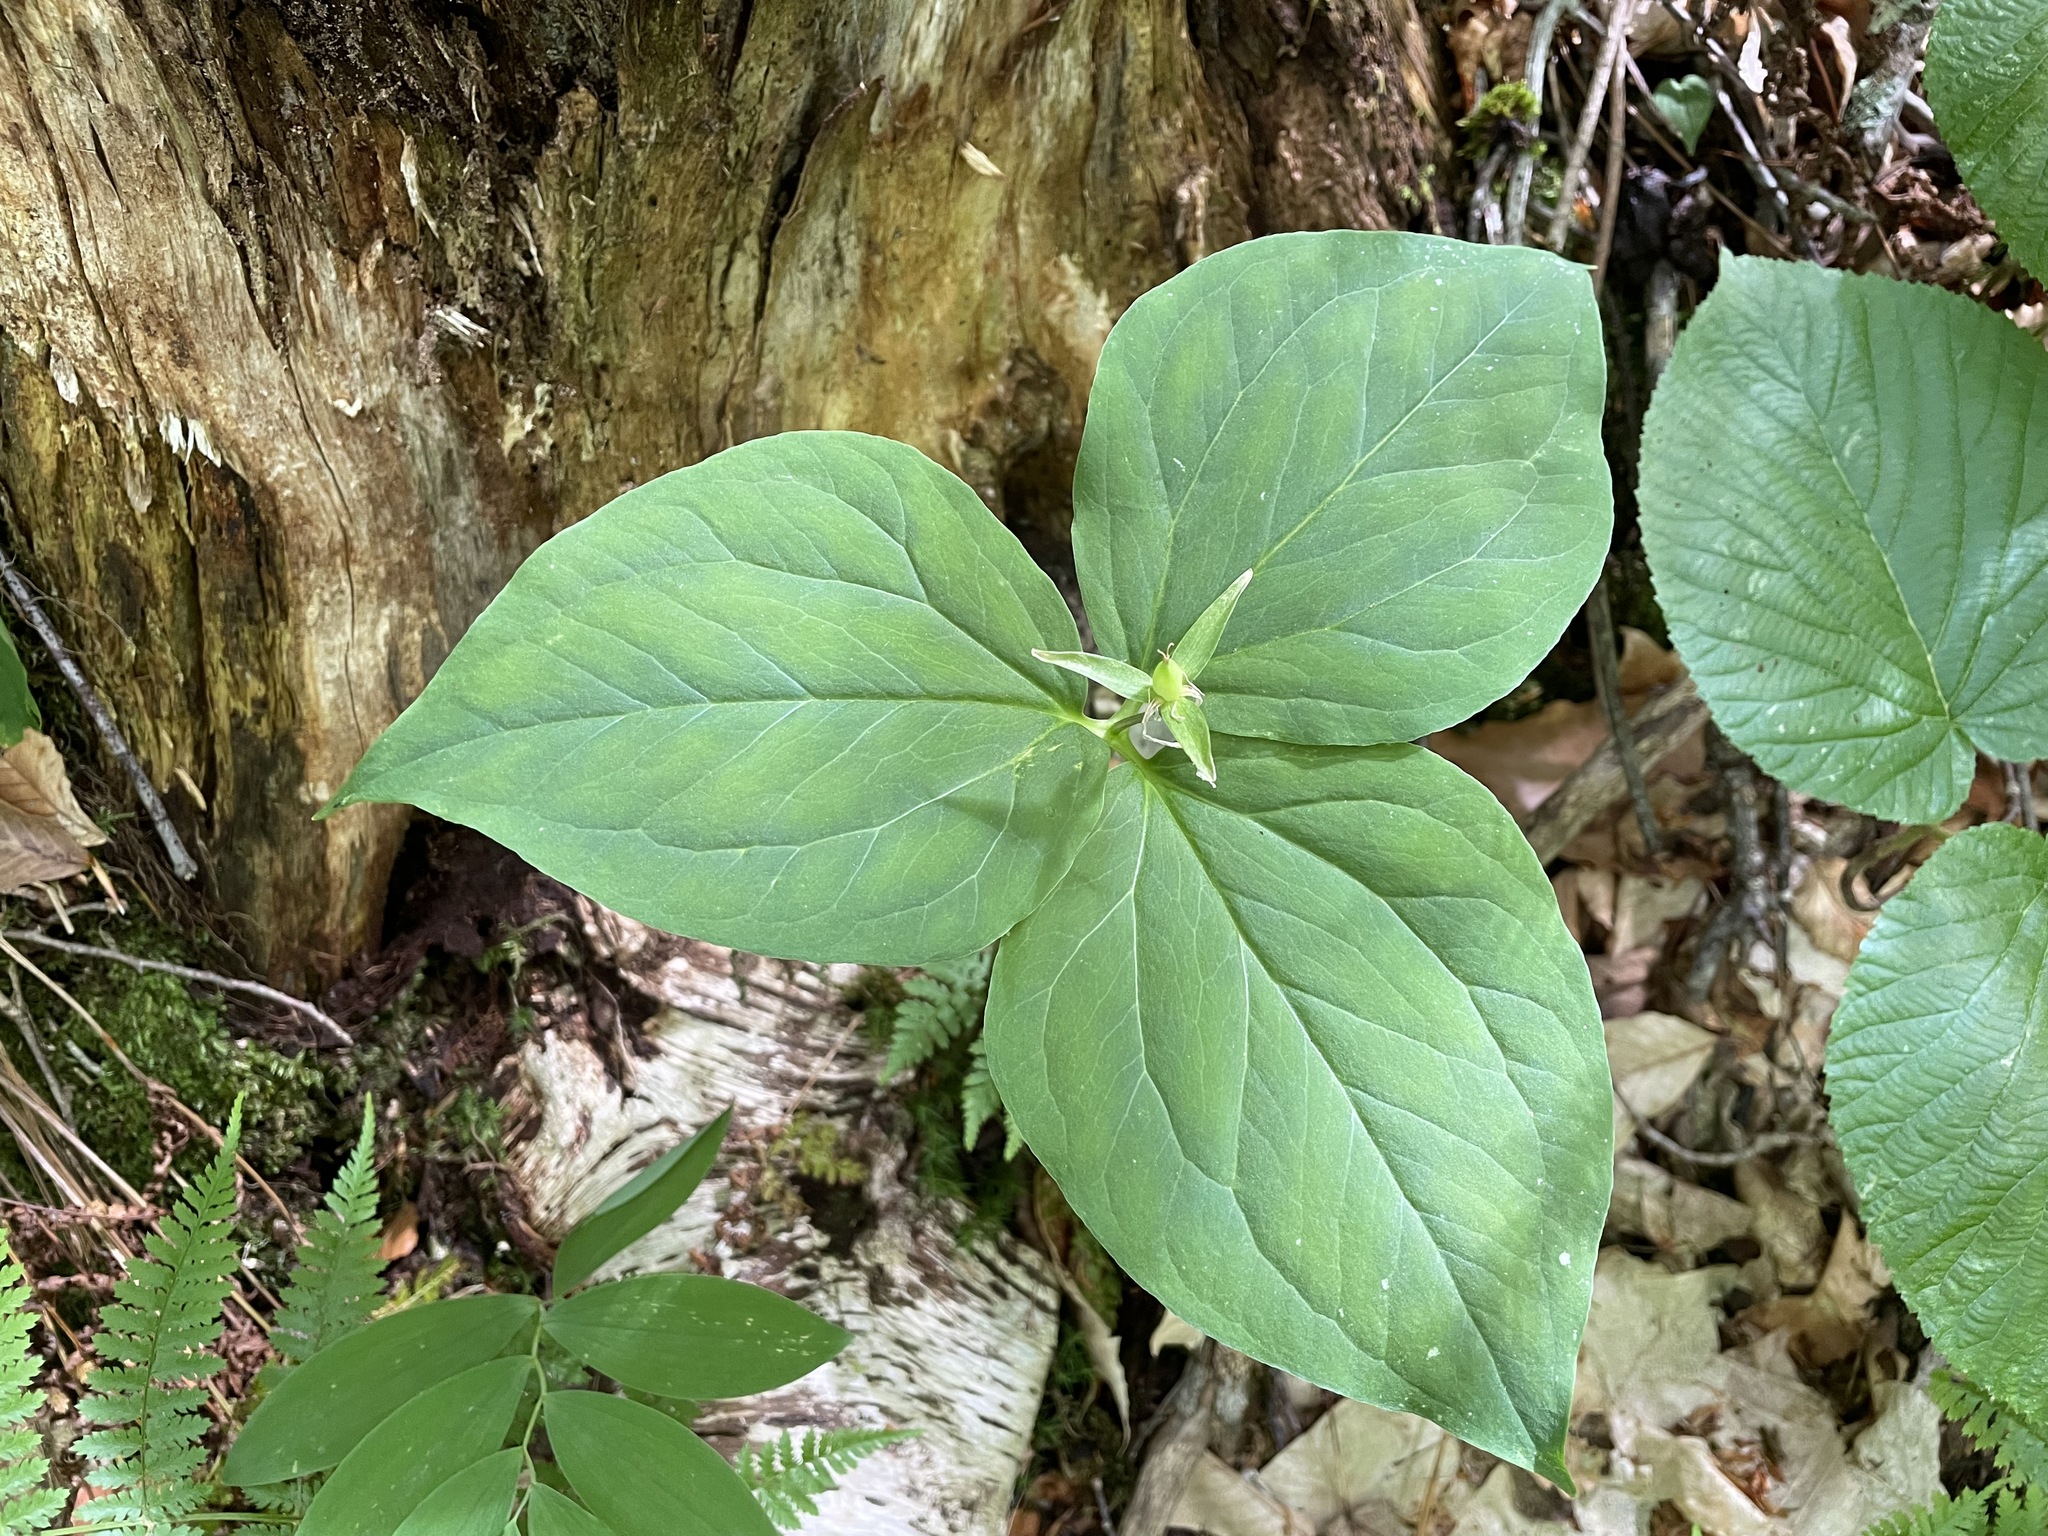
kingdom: Plantae
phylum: Tracheophyta
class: Liliopsida
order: Liliales
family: Melanthiaceae
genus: Trillium
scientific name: Trillium undulatum
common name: Paint trillium
